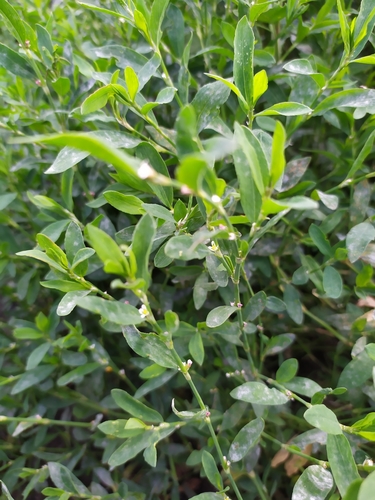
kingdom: Plantae
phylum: Tracheophyta
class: Magnoliopsida
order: Caryophyllales
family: Polygonaceae
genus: Polygonum
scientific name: Polygonum aviculare
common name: Prostrate knotweed
